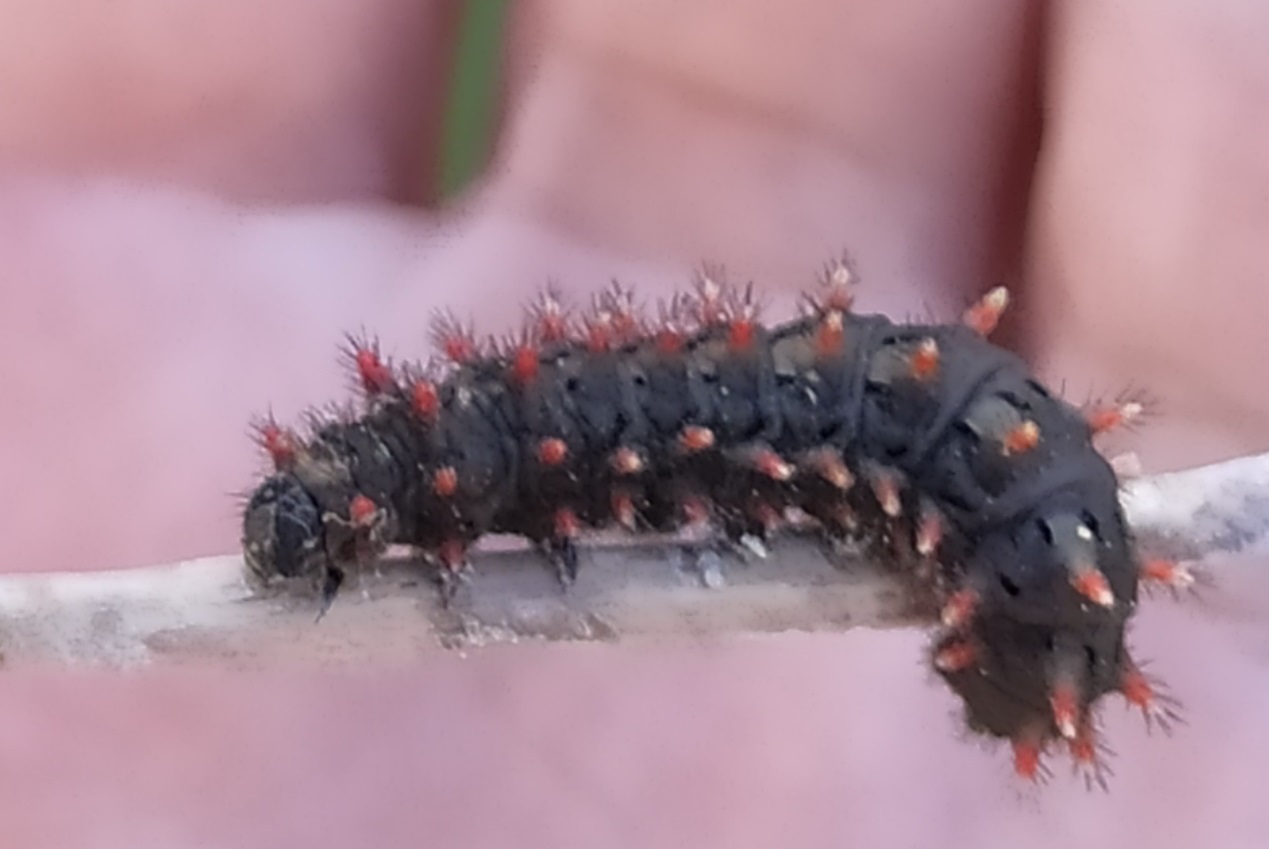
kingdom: Animalia
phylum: Arthropoda
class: Insecta
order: Lepidoptera
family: Papilionidae
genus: Zerynthia
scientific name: Zerynthia rumina
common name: Spanish festoon
